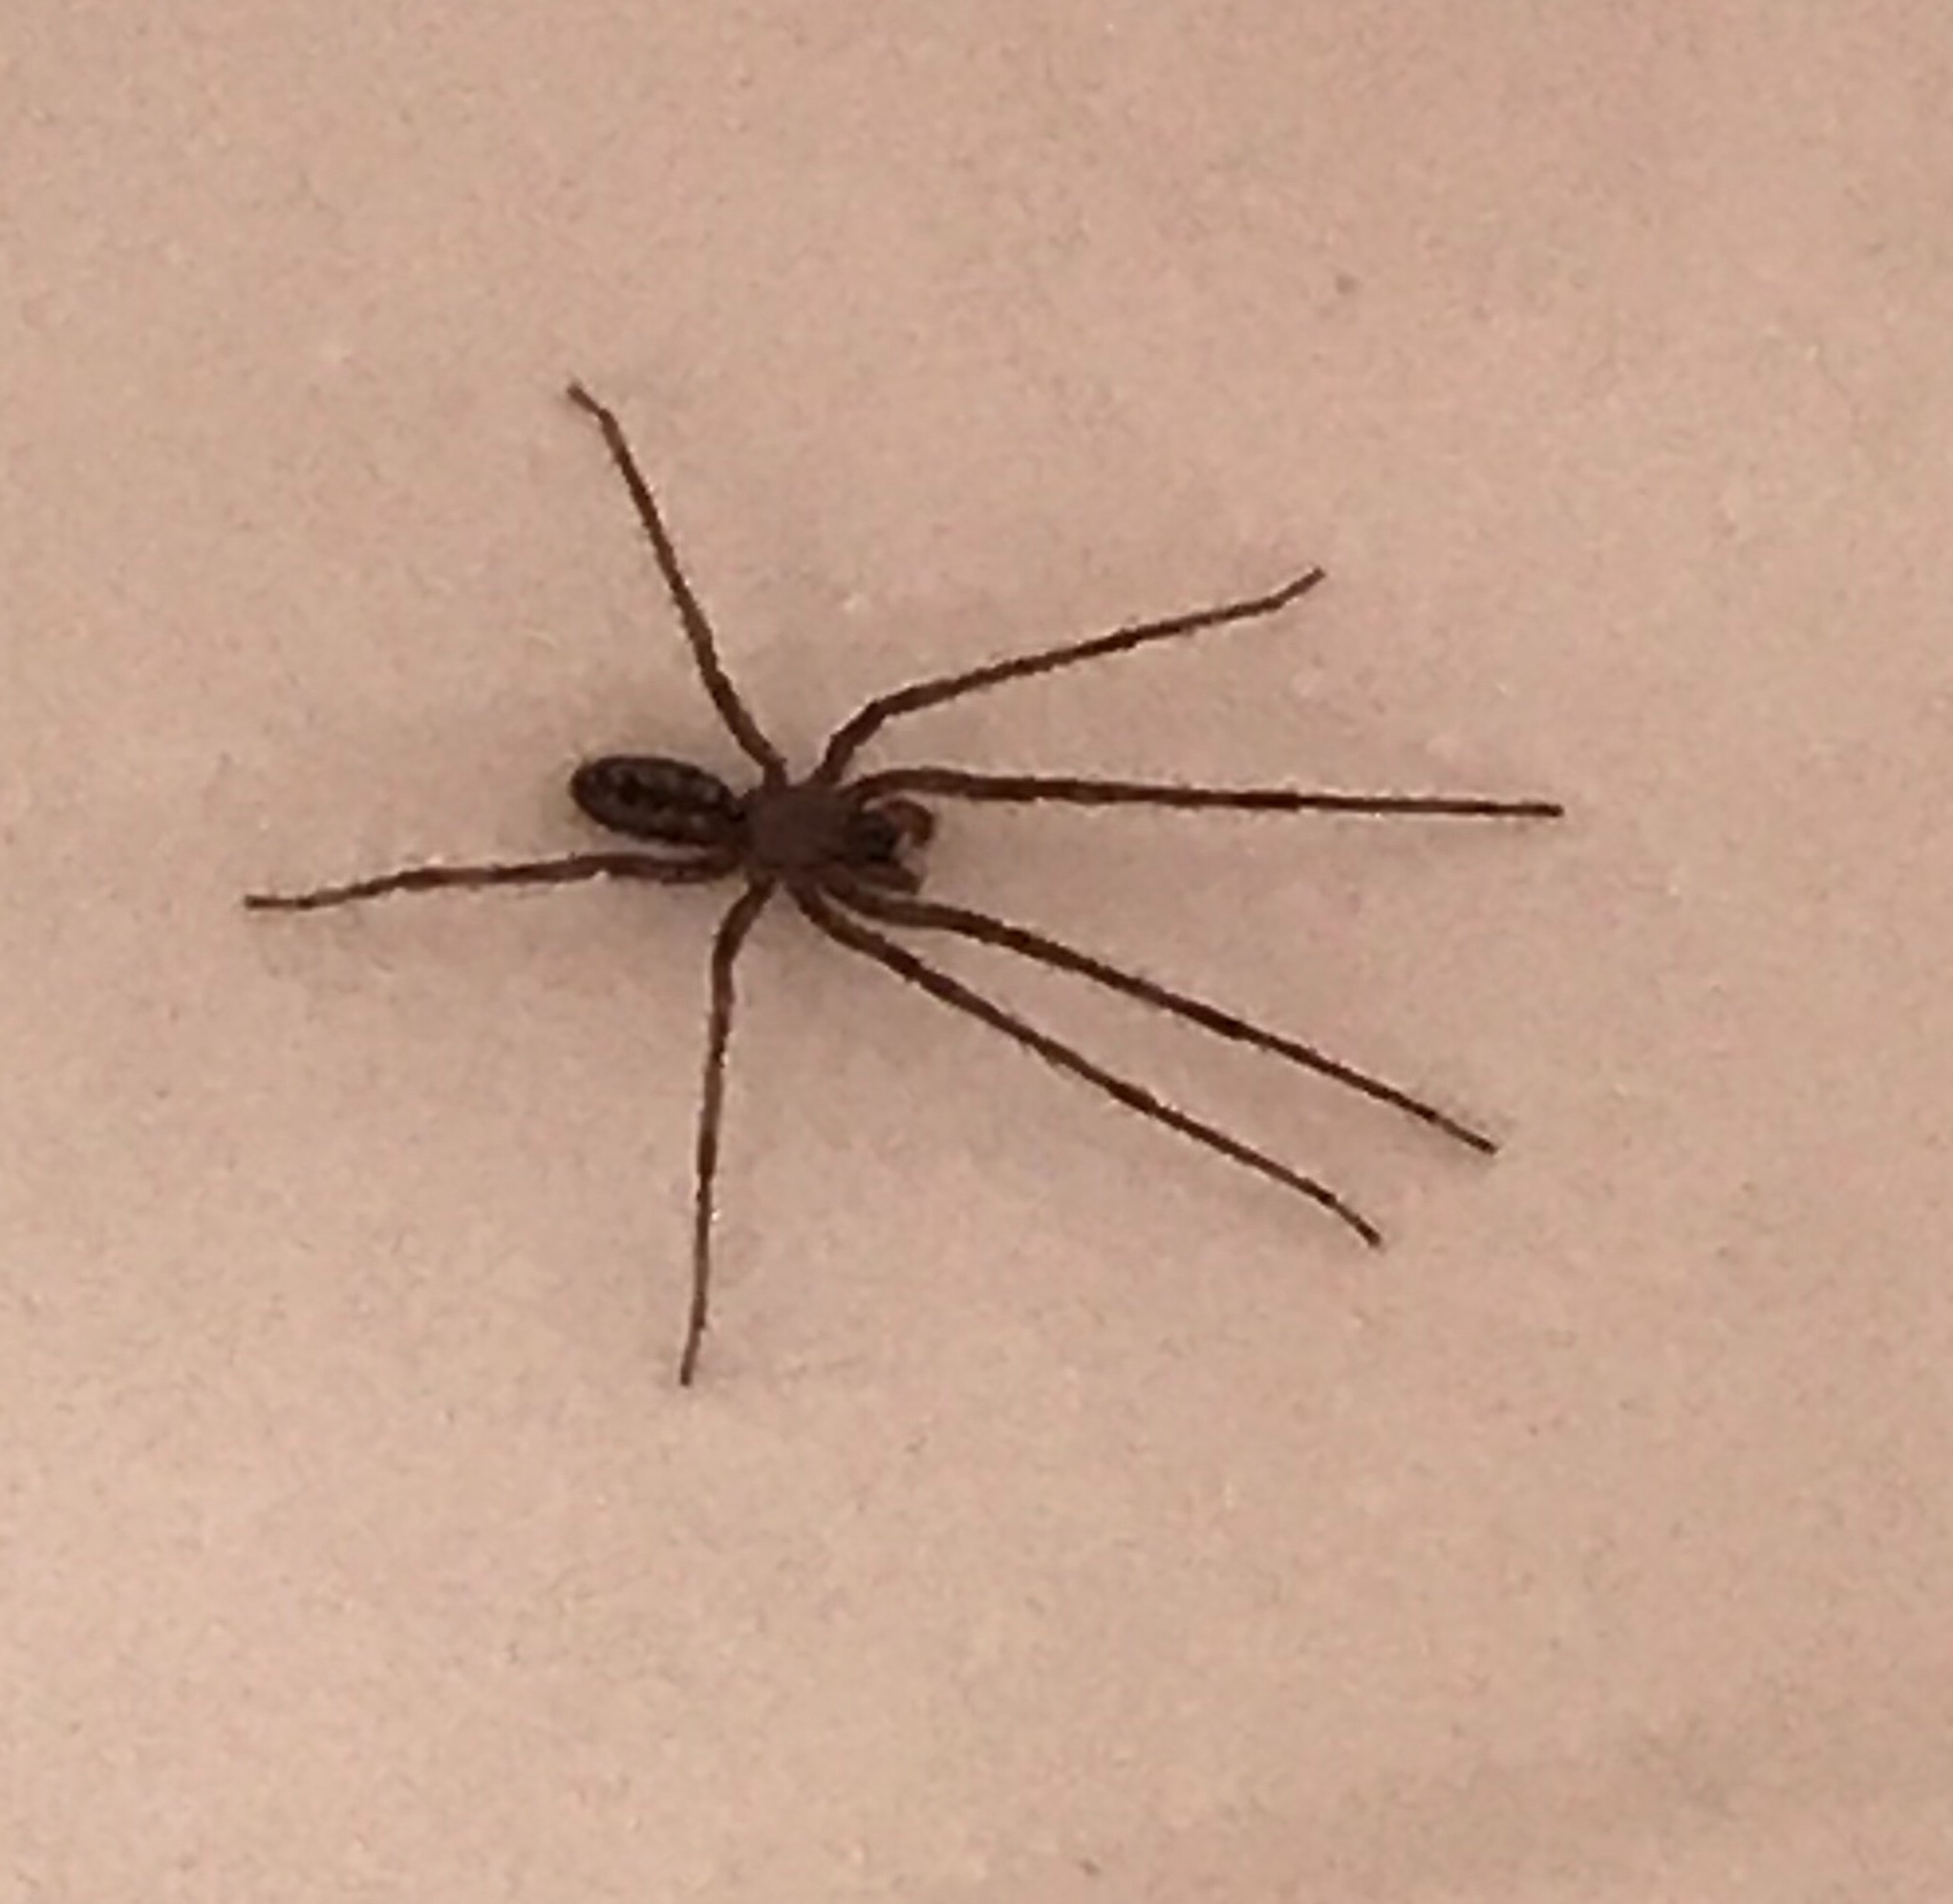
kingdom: Animalia
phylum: Arthropoda
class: Arachnida
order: Araneae
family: Segestriidae
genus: Segestria
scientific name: Segestria pacifica
